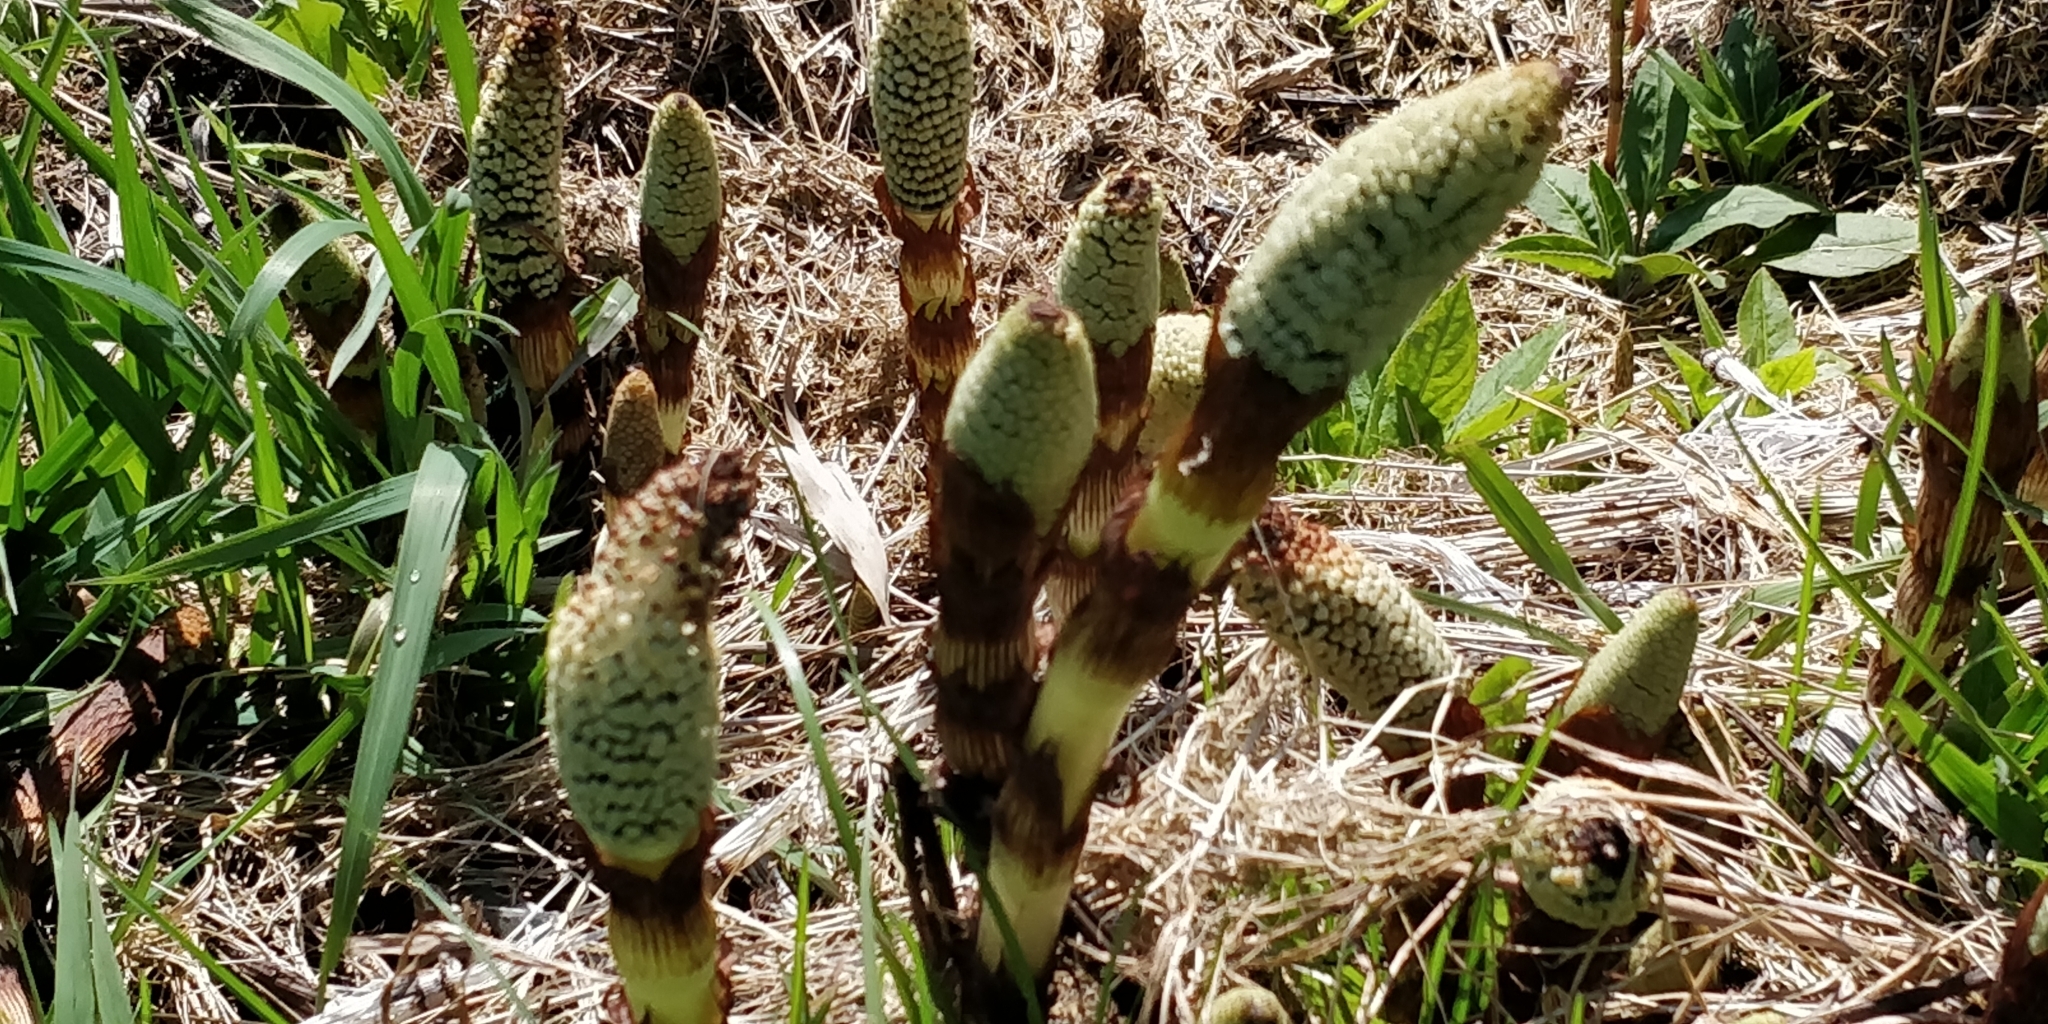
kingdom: Plantae
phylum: Tracheophyta
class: Polypodiopsida
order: Equisetales
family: Equisetaceae
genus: Equisetum
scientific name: Equisetum braunii
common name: Braun's horsetail
